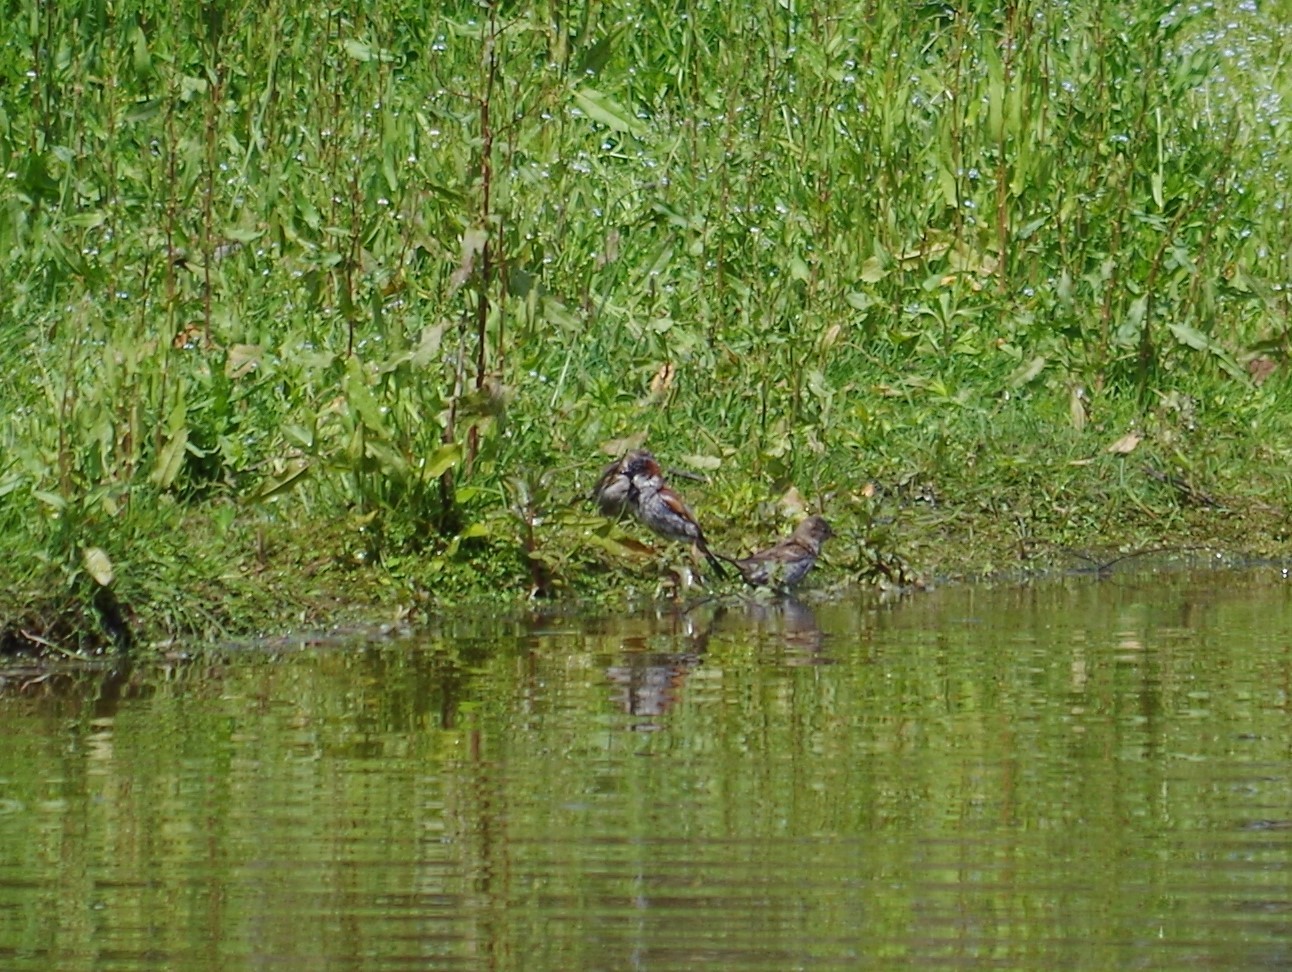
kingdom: Animalia
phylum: Chordata
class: Aves
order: Passeriformes
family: Passeridae
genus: Passer
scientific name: Passer domesticus
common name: House sparrow
